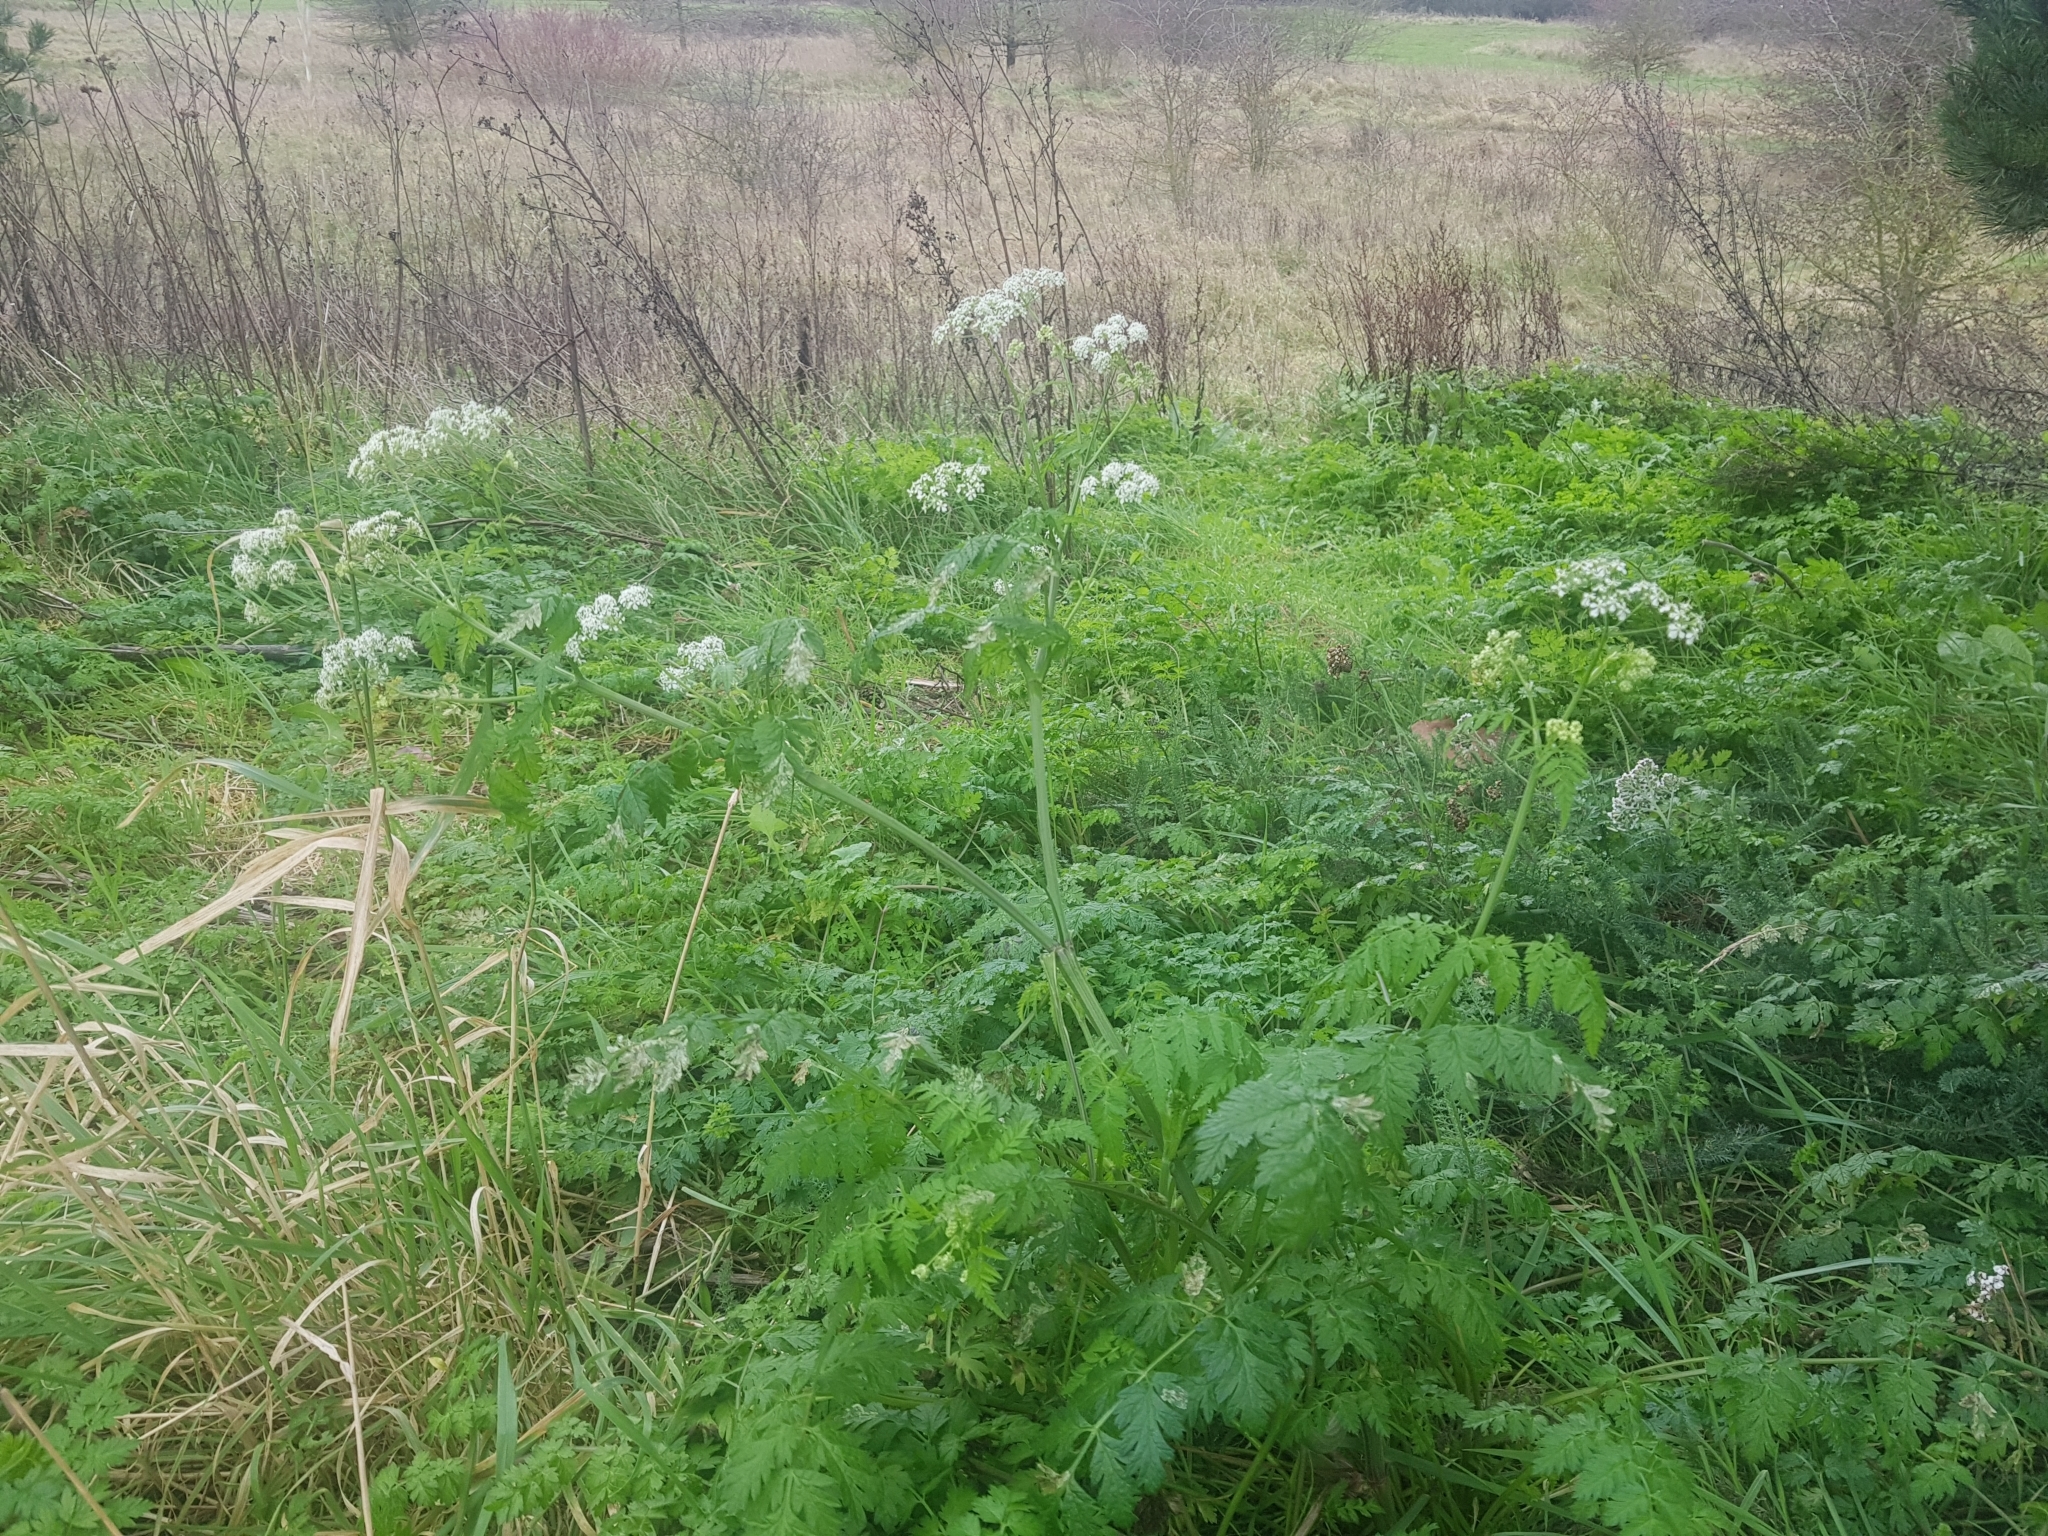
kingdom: Plantae
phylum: Tracheophyta
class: Magnoliopsida
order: Apiales
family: Apiaceae
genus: Anthriscus
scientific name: Anthriscus sylvestris
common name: Cow parsley
